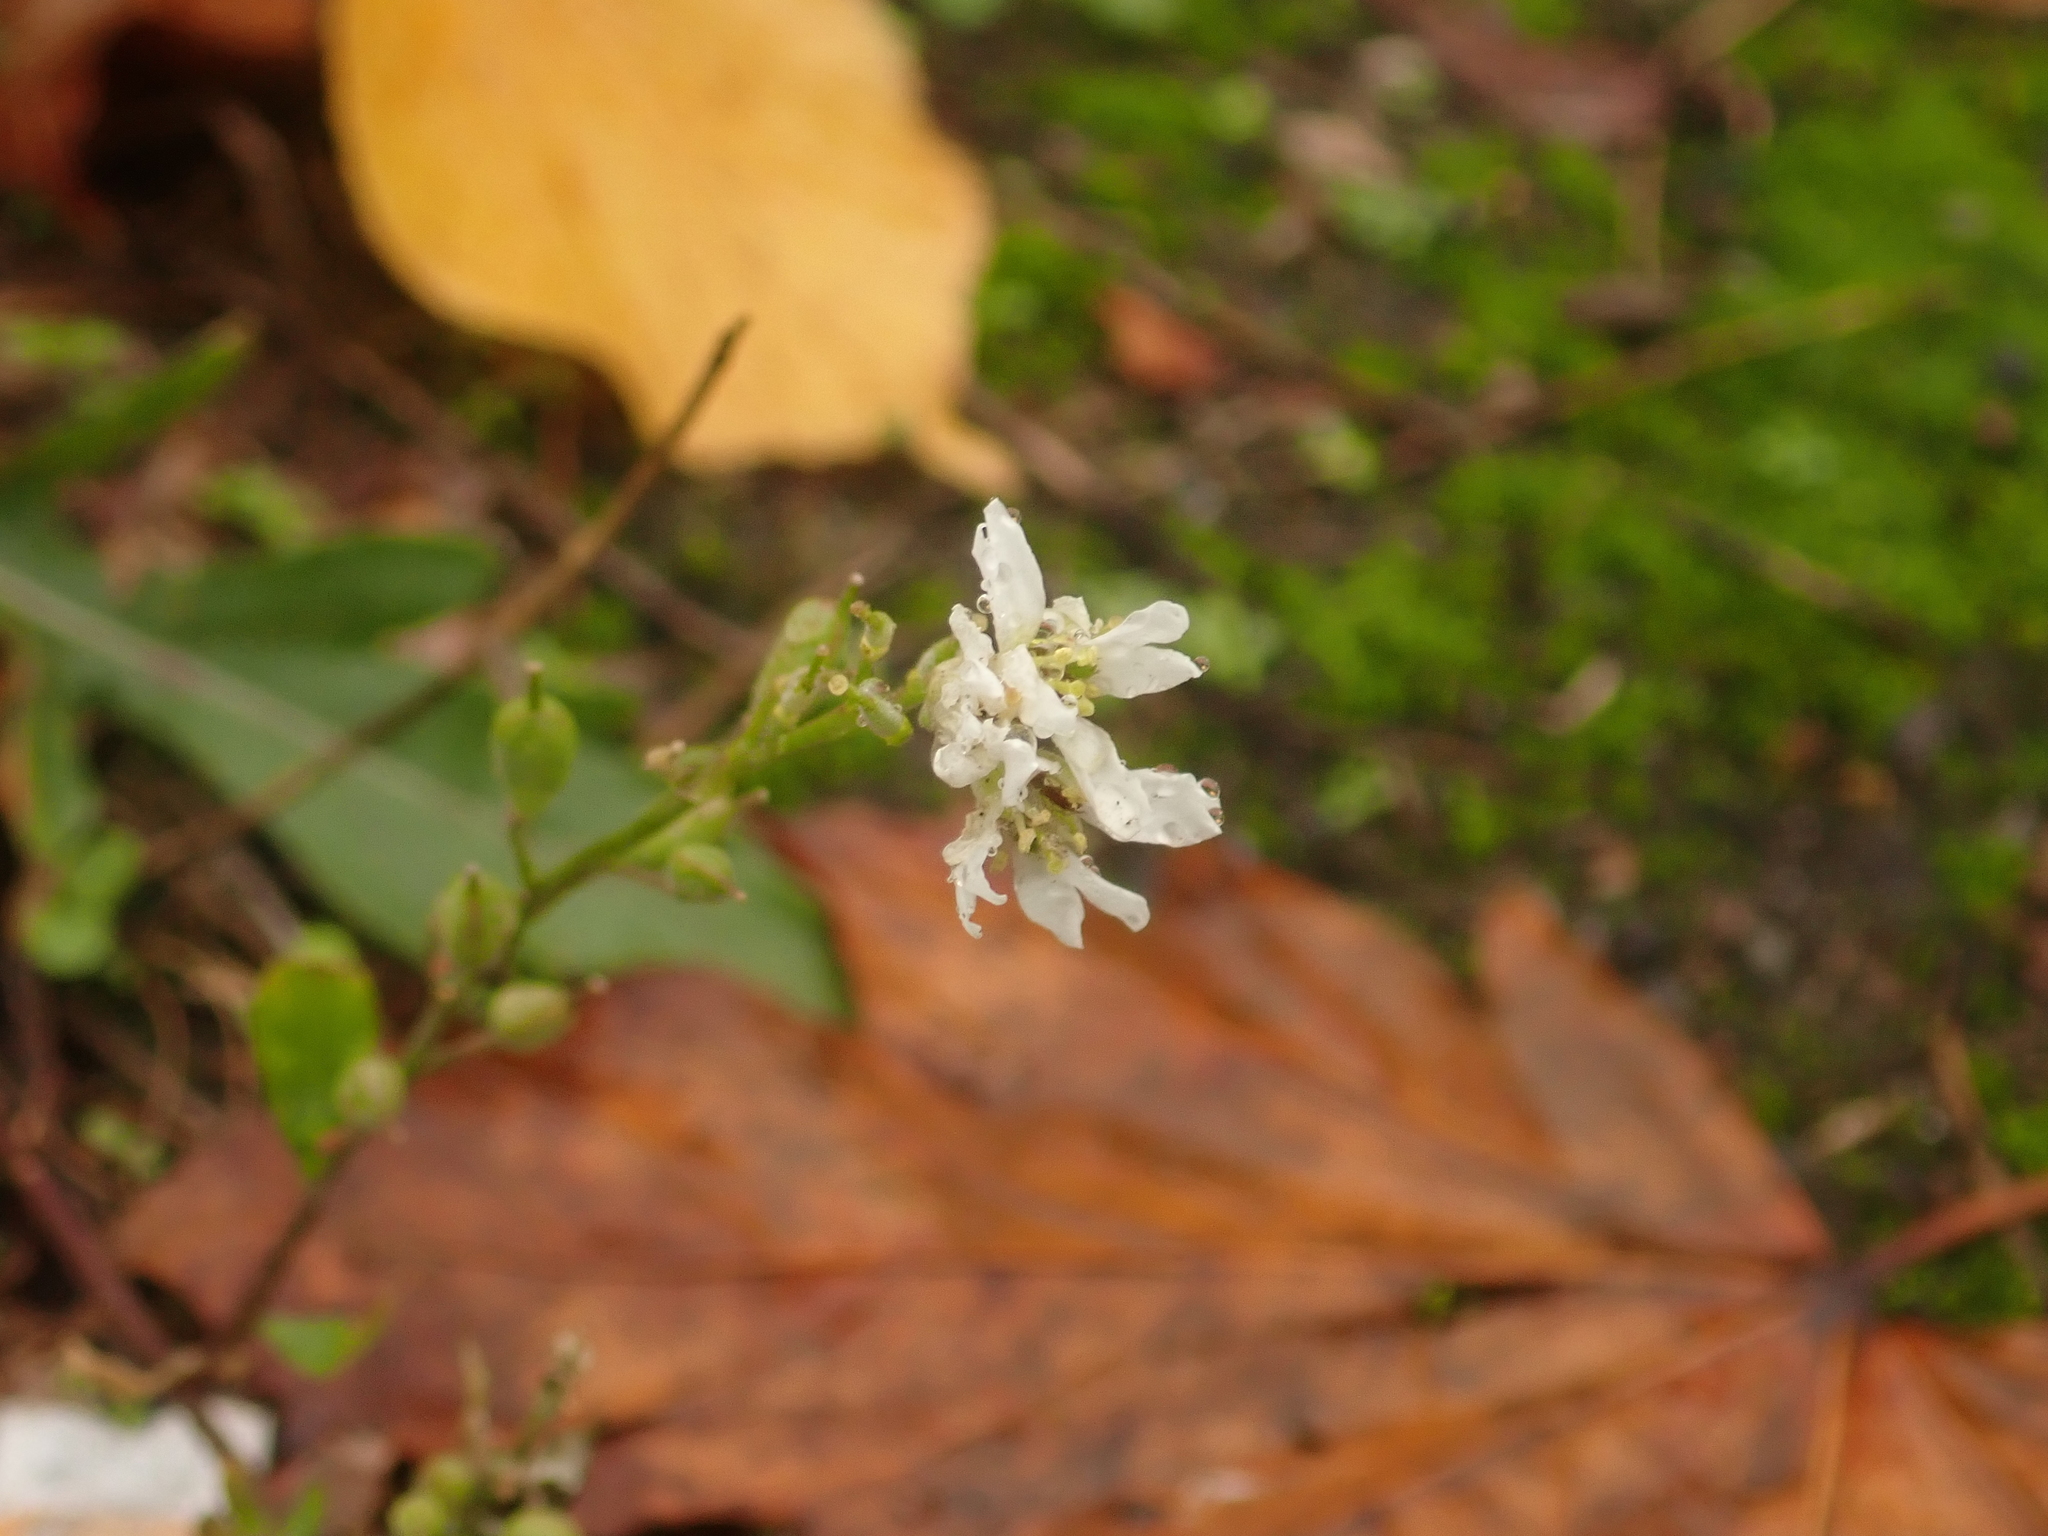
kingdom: Plantae
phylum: Tracheophyta
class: Magnoliopsida
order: Brassicales
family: Brassicaceae
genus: Berteroa
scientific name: Berteroa incana
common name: Hoary alison
